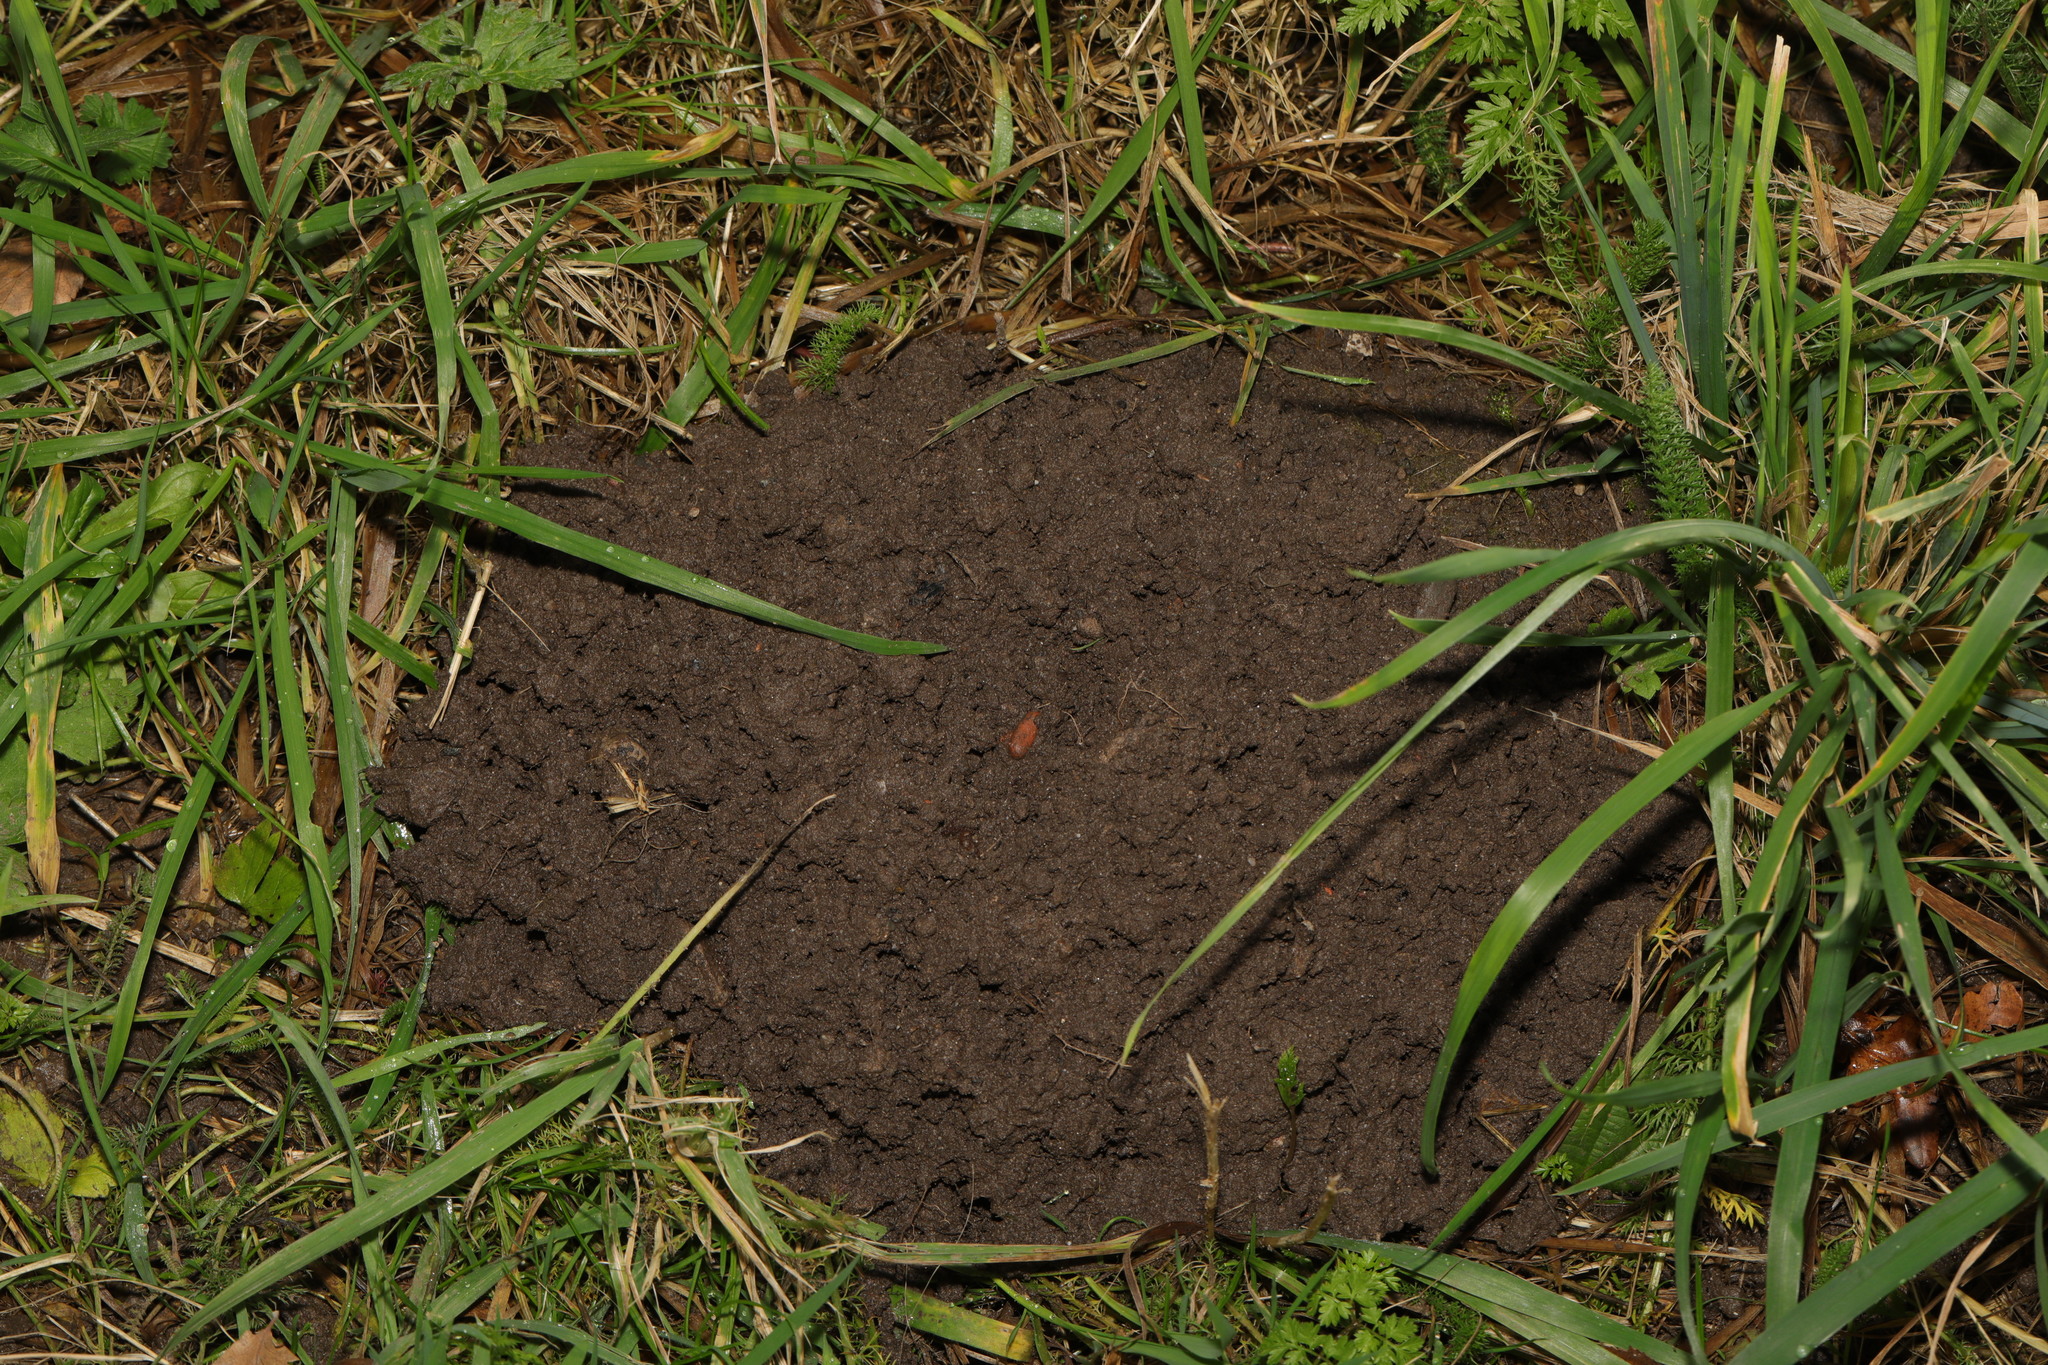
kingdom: Animalia
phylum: Chordata
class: Mammalia
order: Soricomorpha
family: Talpidae
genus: Talpa
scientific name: Talpa europaea
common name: European mole
